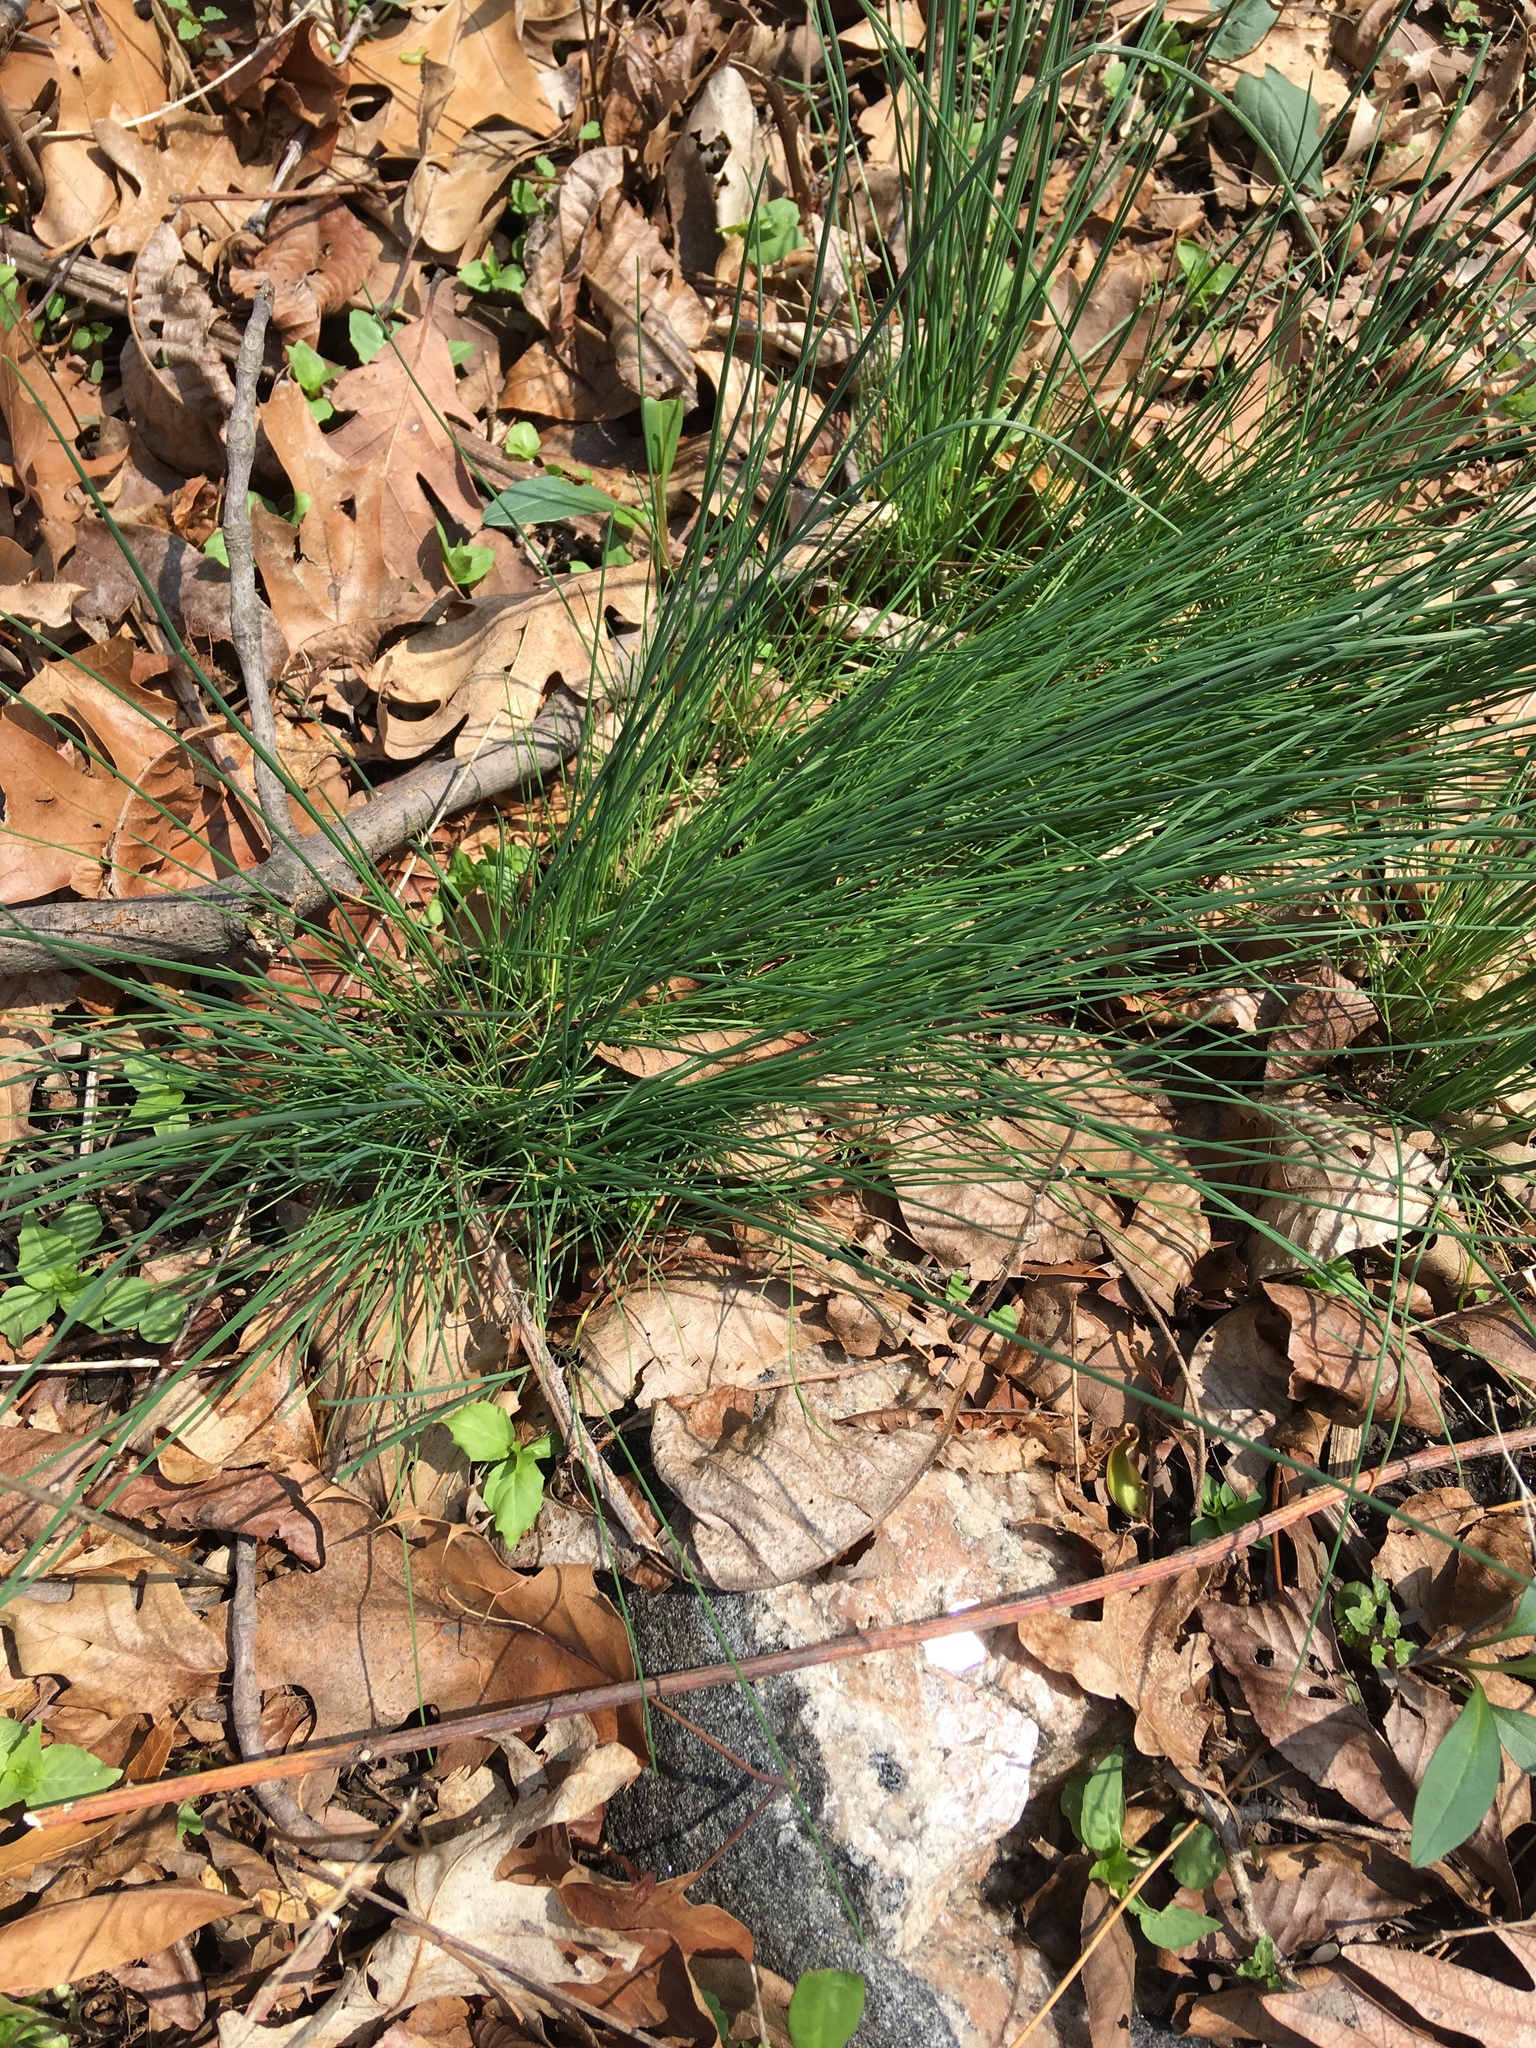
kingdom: Plantae
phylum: Tracheophyta
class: Liliopsida
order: Asparagales
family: Amaryllidaceae
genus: Allium
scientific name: Allium vineale
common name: Crow garlic
